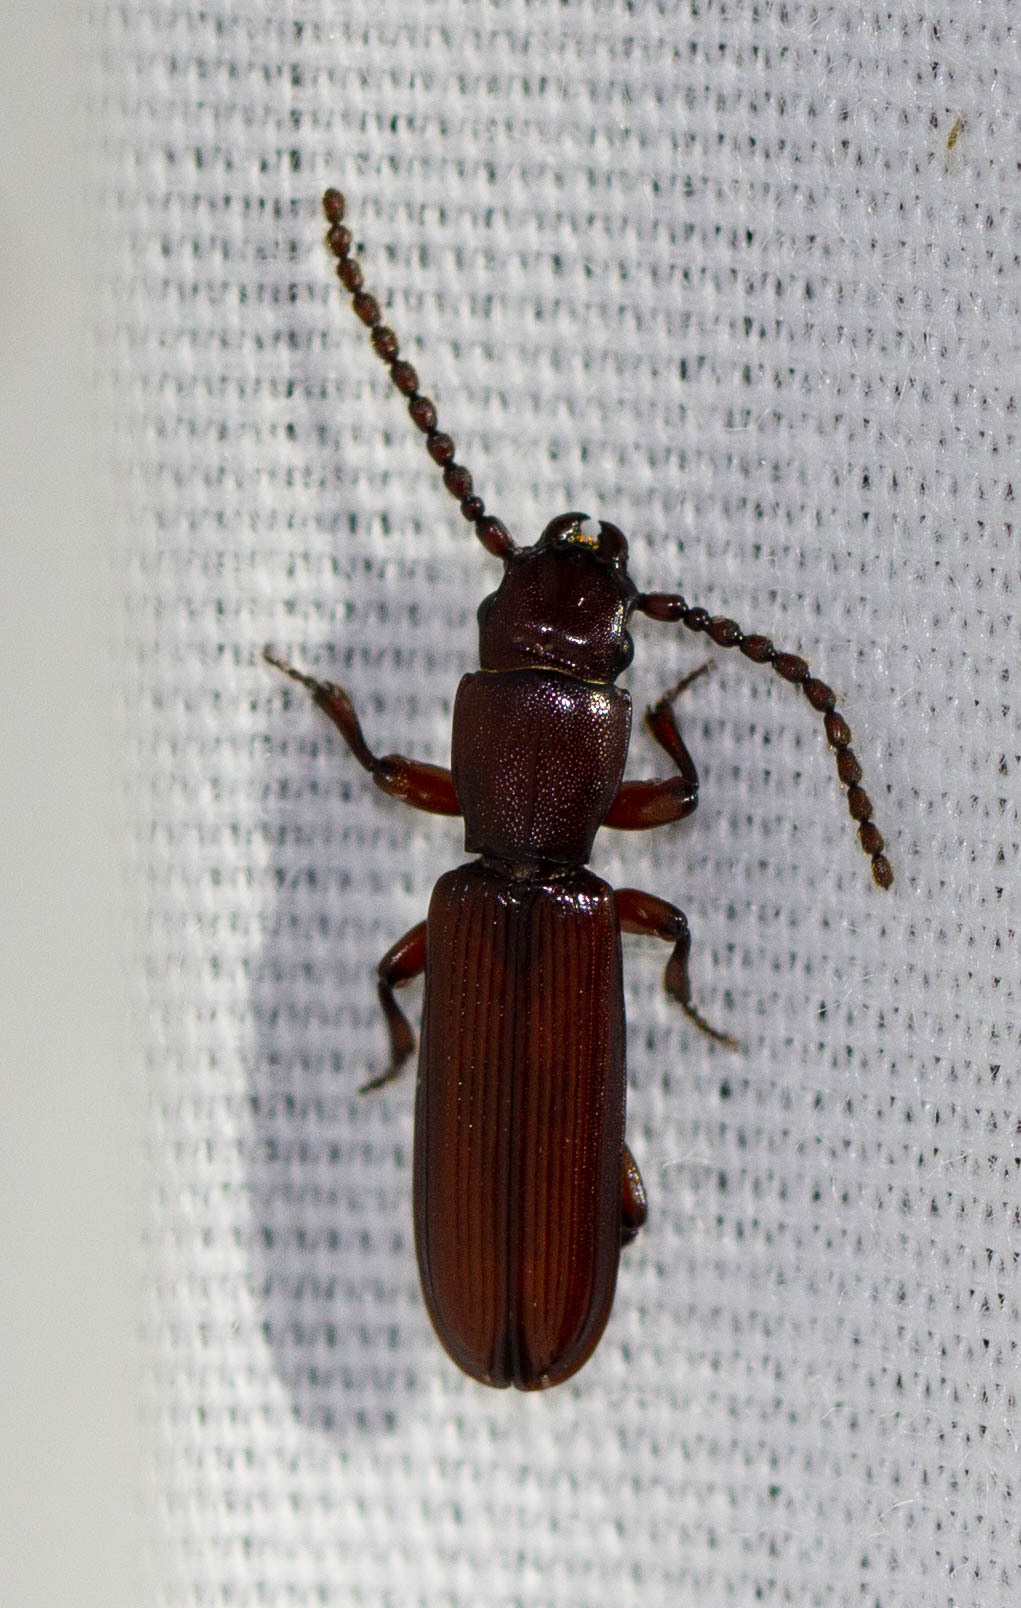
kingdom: Animalia
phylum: Arthropoda
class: Insecta
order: Coleoptera
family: Passandridae
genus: Catogenus
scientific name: Catogenus rufus
